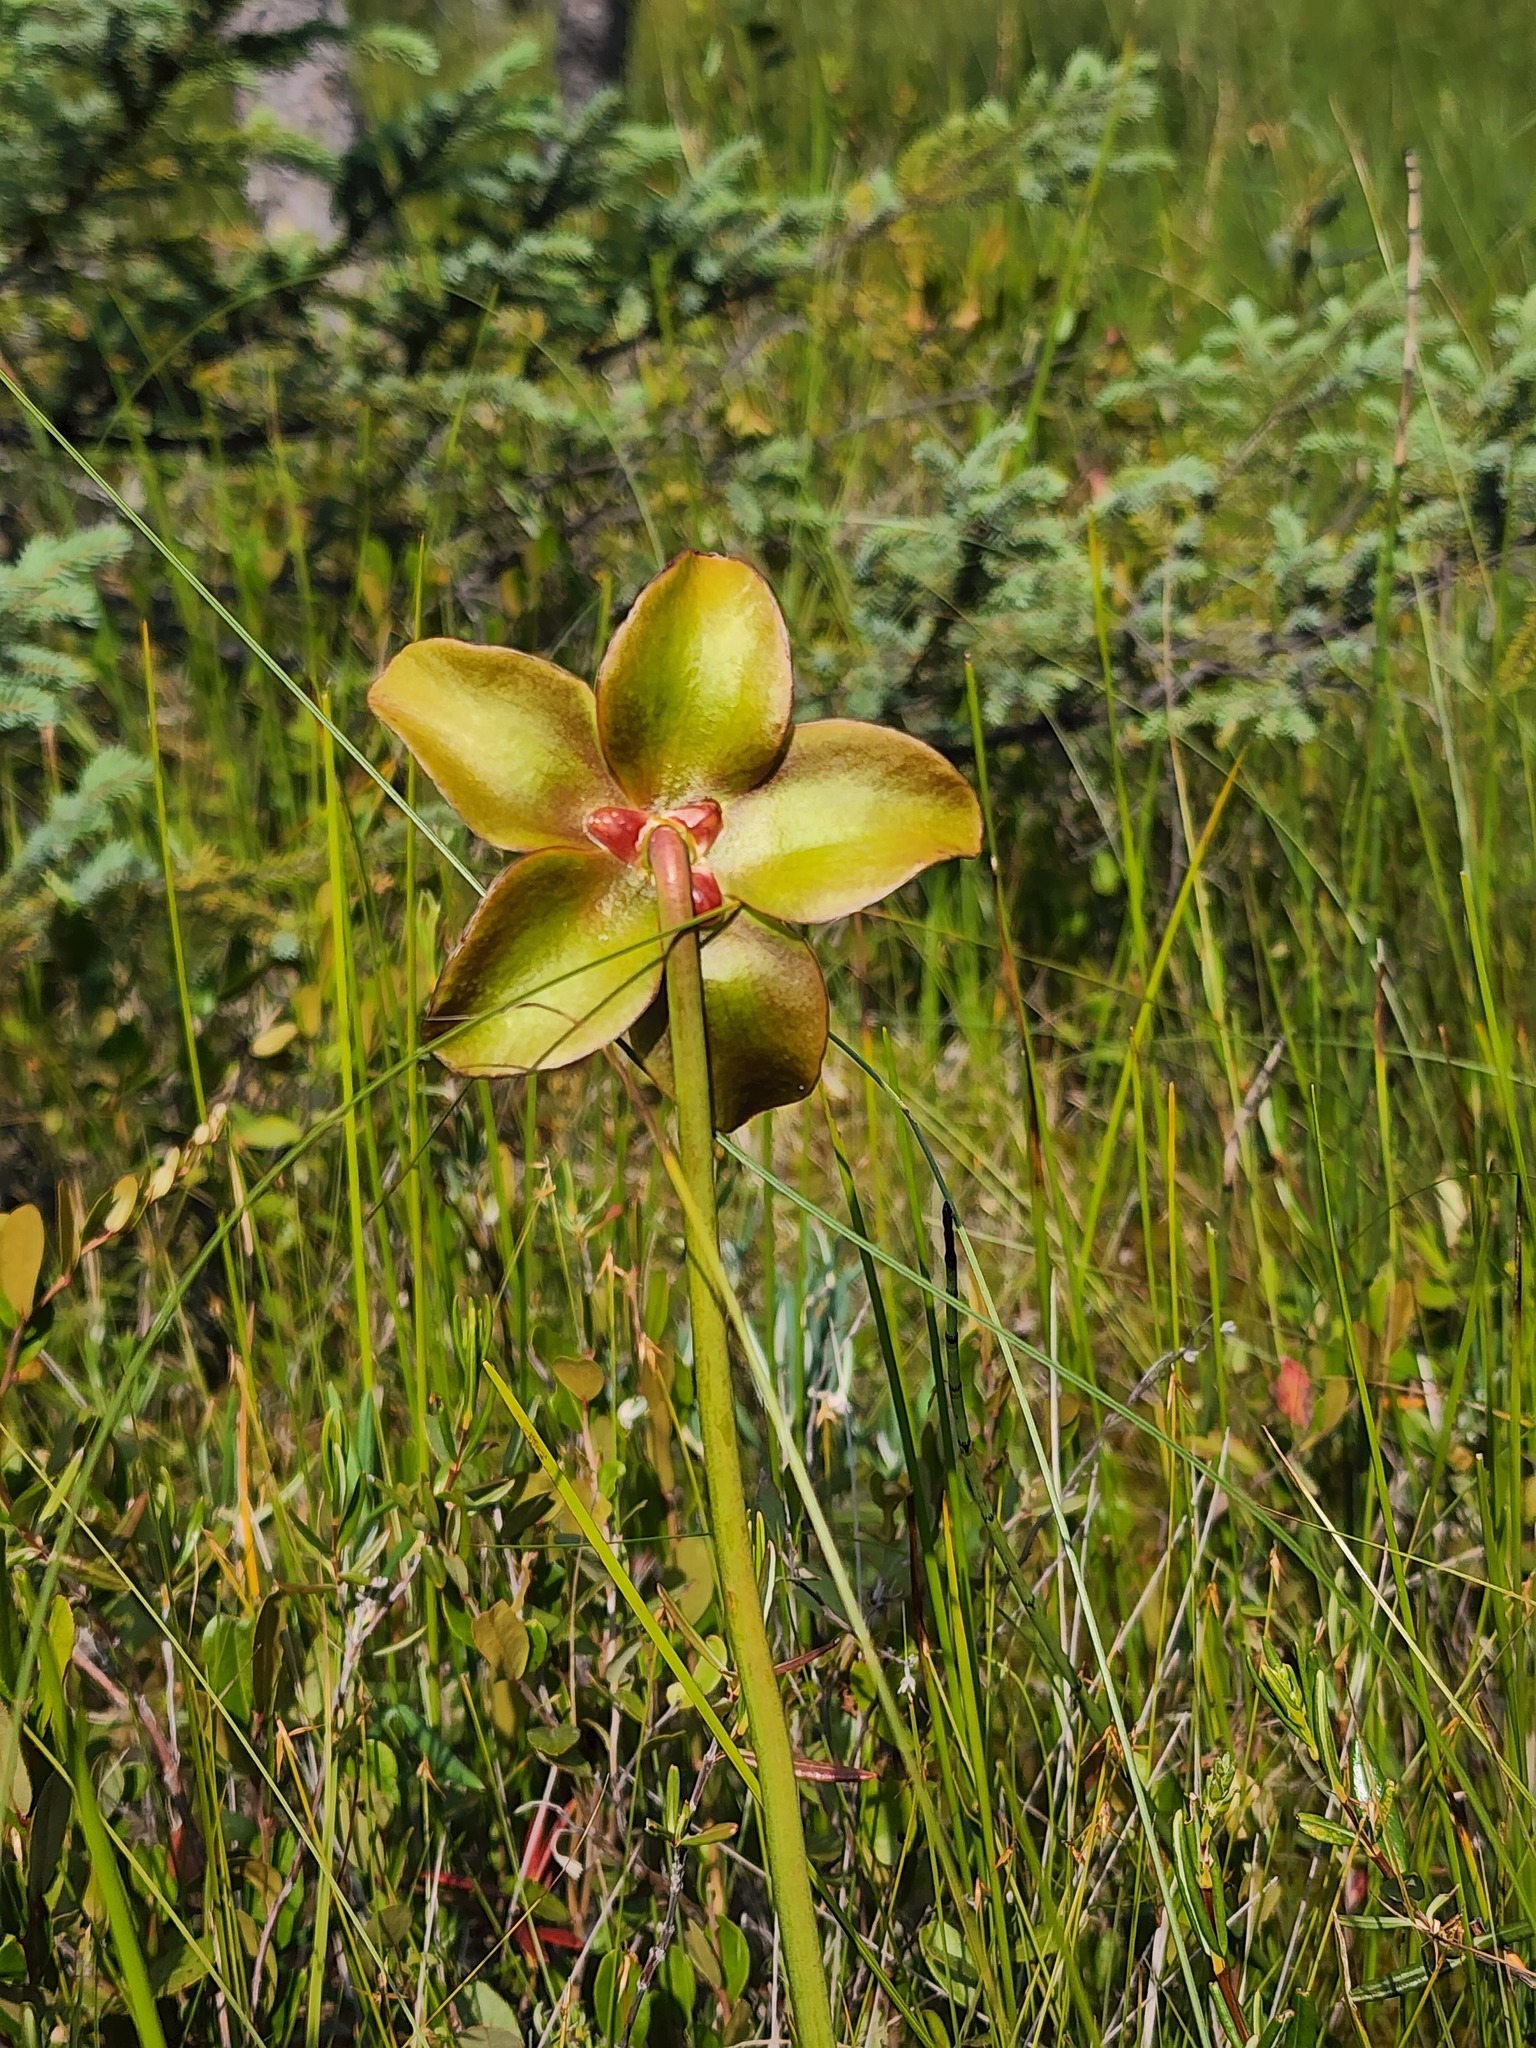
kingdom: Plantae
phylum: Tracheophyta
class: Magnoliopsida
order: Ericales
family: Sarraceniaceae
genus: Sarracenia
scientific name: Sarracenia purpurea
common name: Pitcherplant
